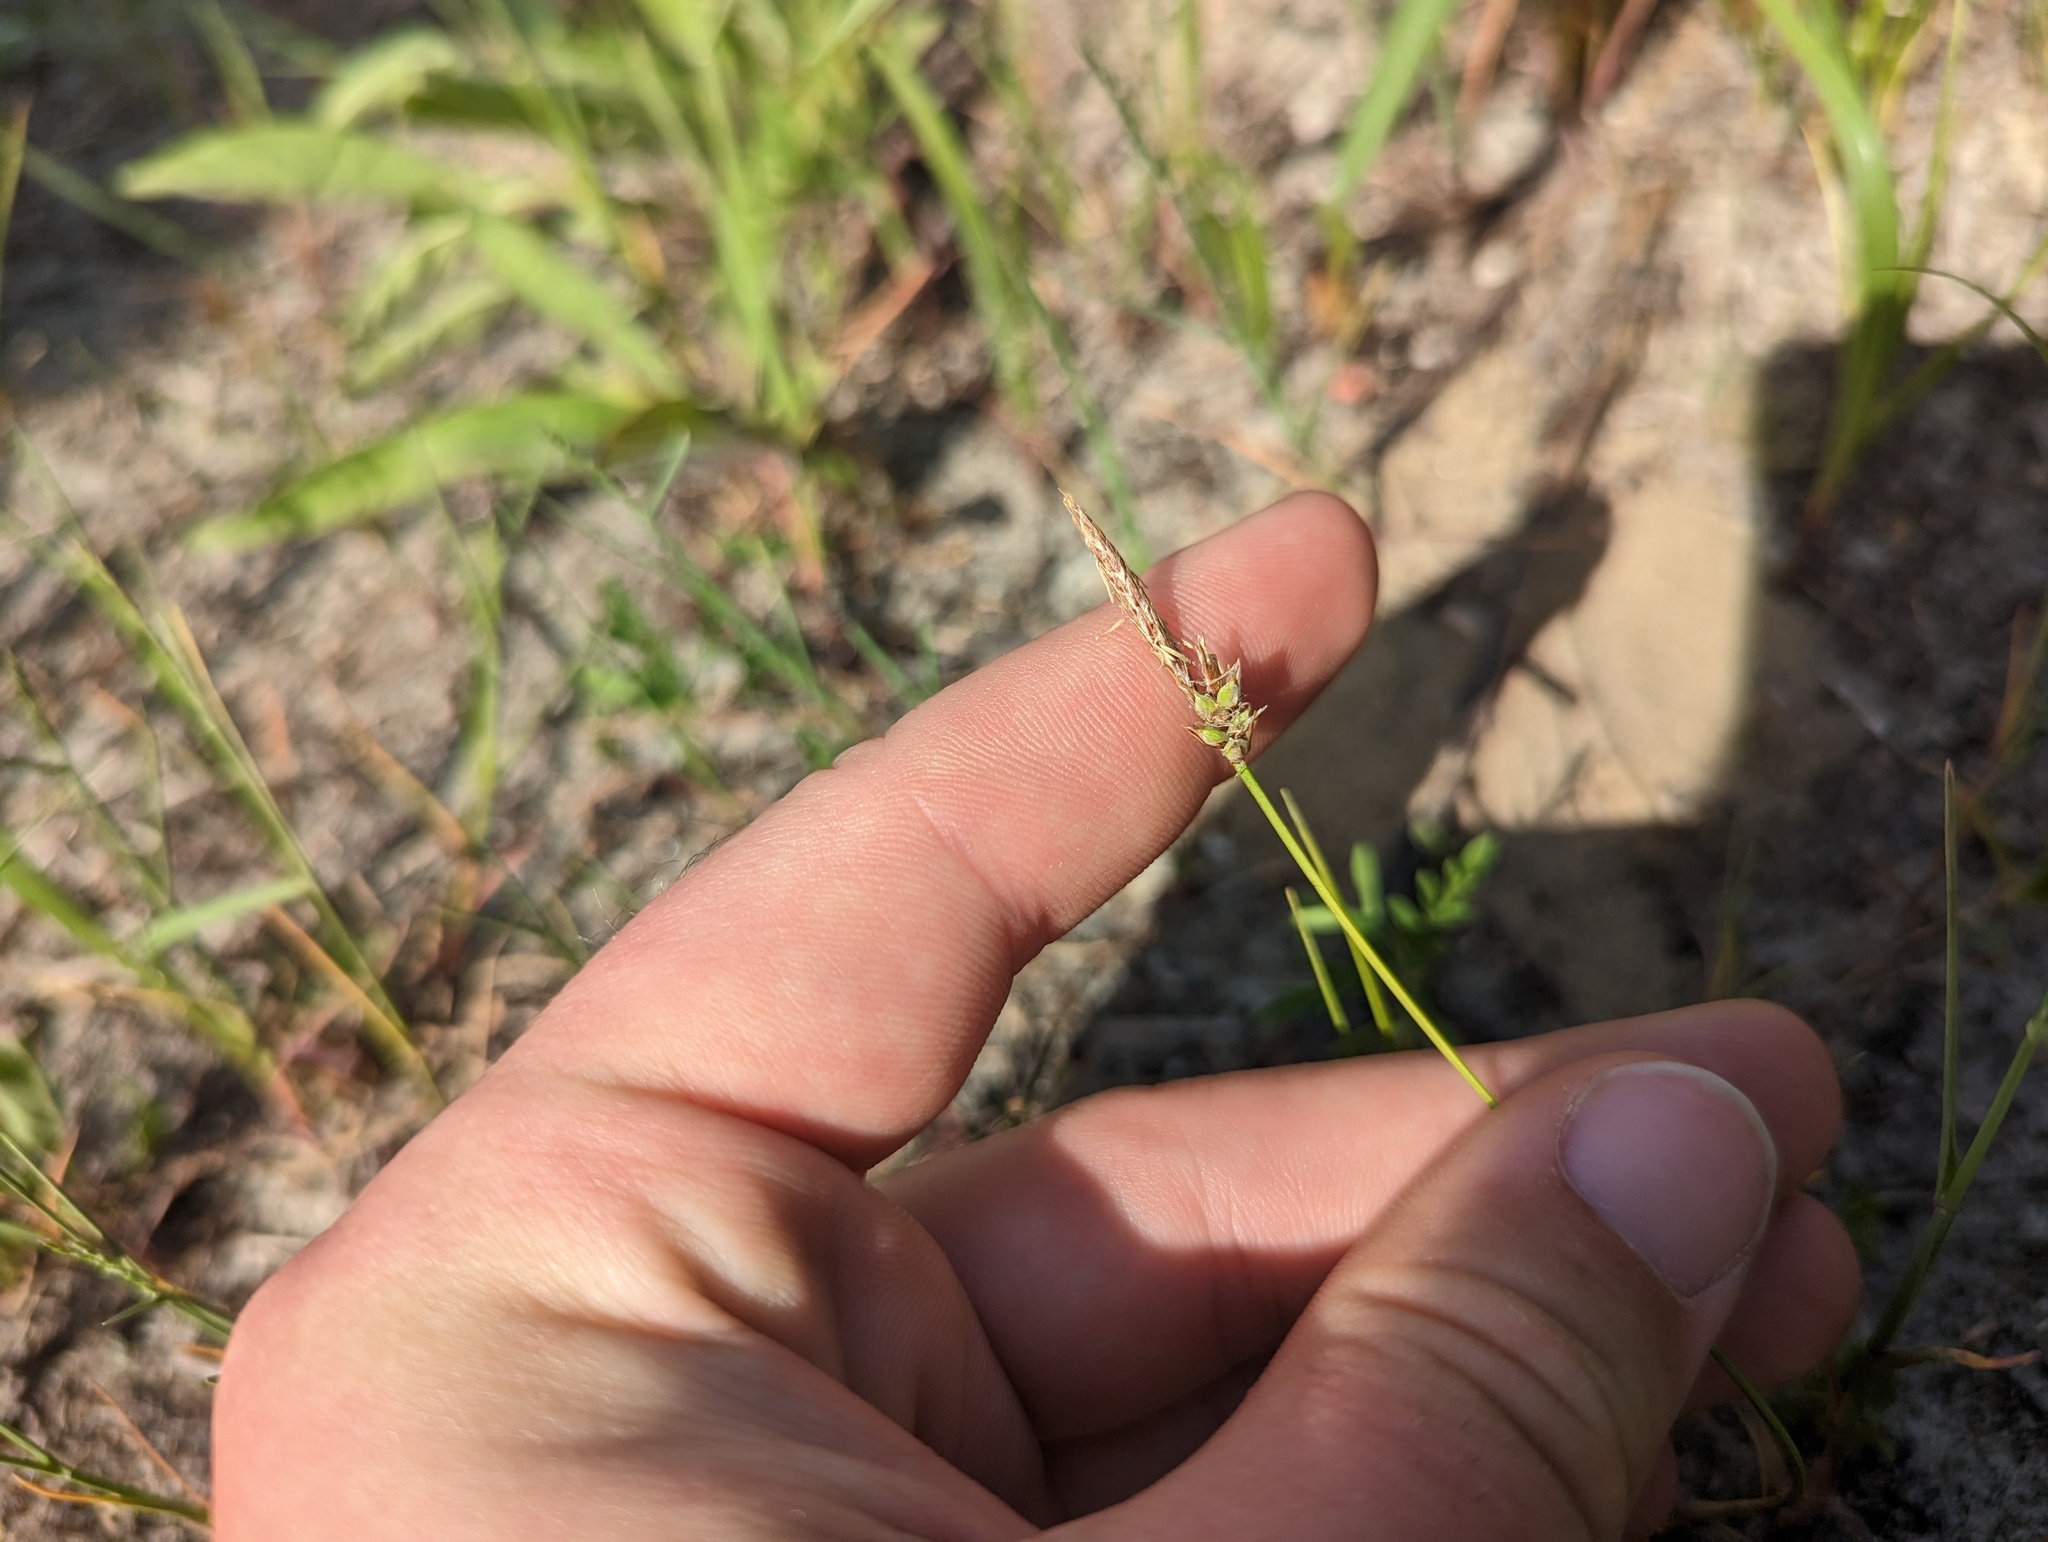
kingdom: Plantae
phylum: Tracheophyta
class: Liliopsida
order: Poales
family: Cyperaceae
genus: Carex
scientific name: Carex inops
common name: Long-stolon sedge
